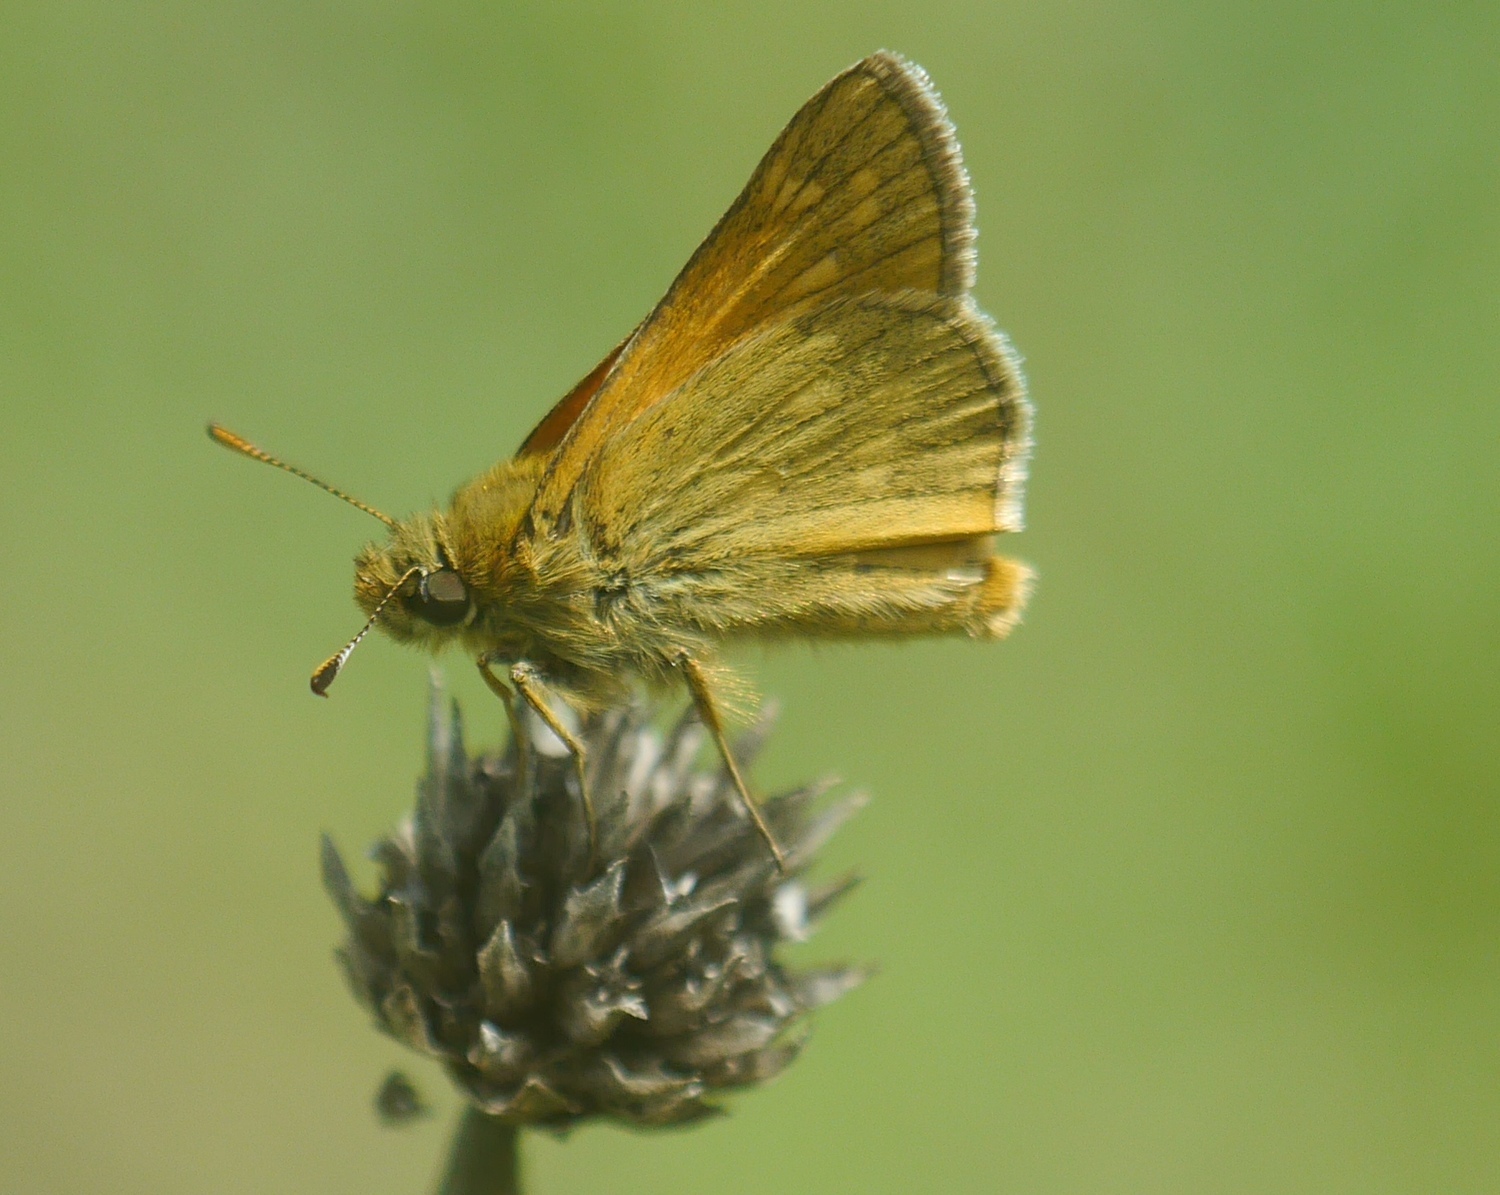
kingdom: Animalia
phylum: Arthropoda
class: Insecta
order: Lepidoptera
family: Hesperiidae
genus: Ochlodes
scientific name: Ochlodes venata
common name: Large skipper
